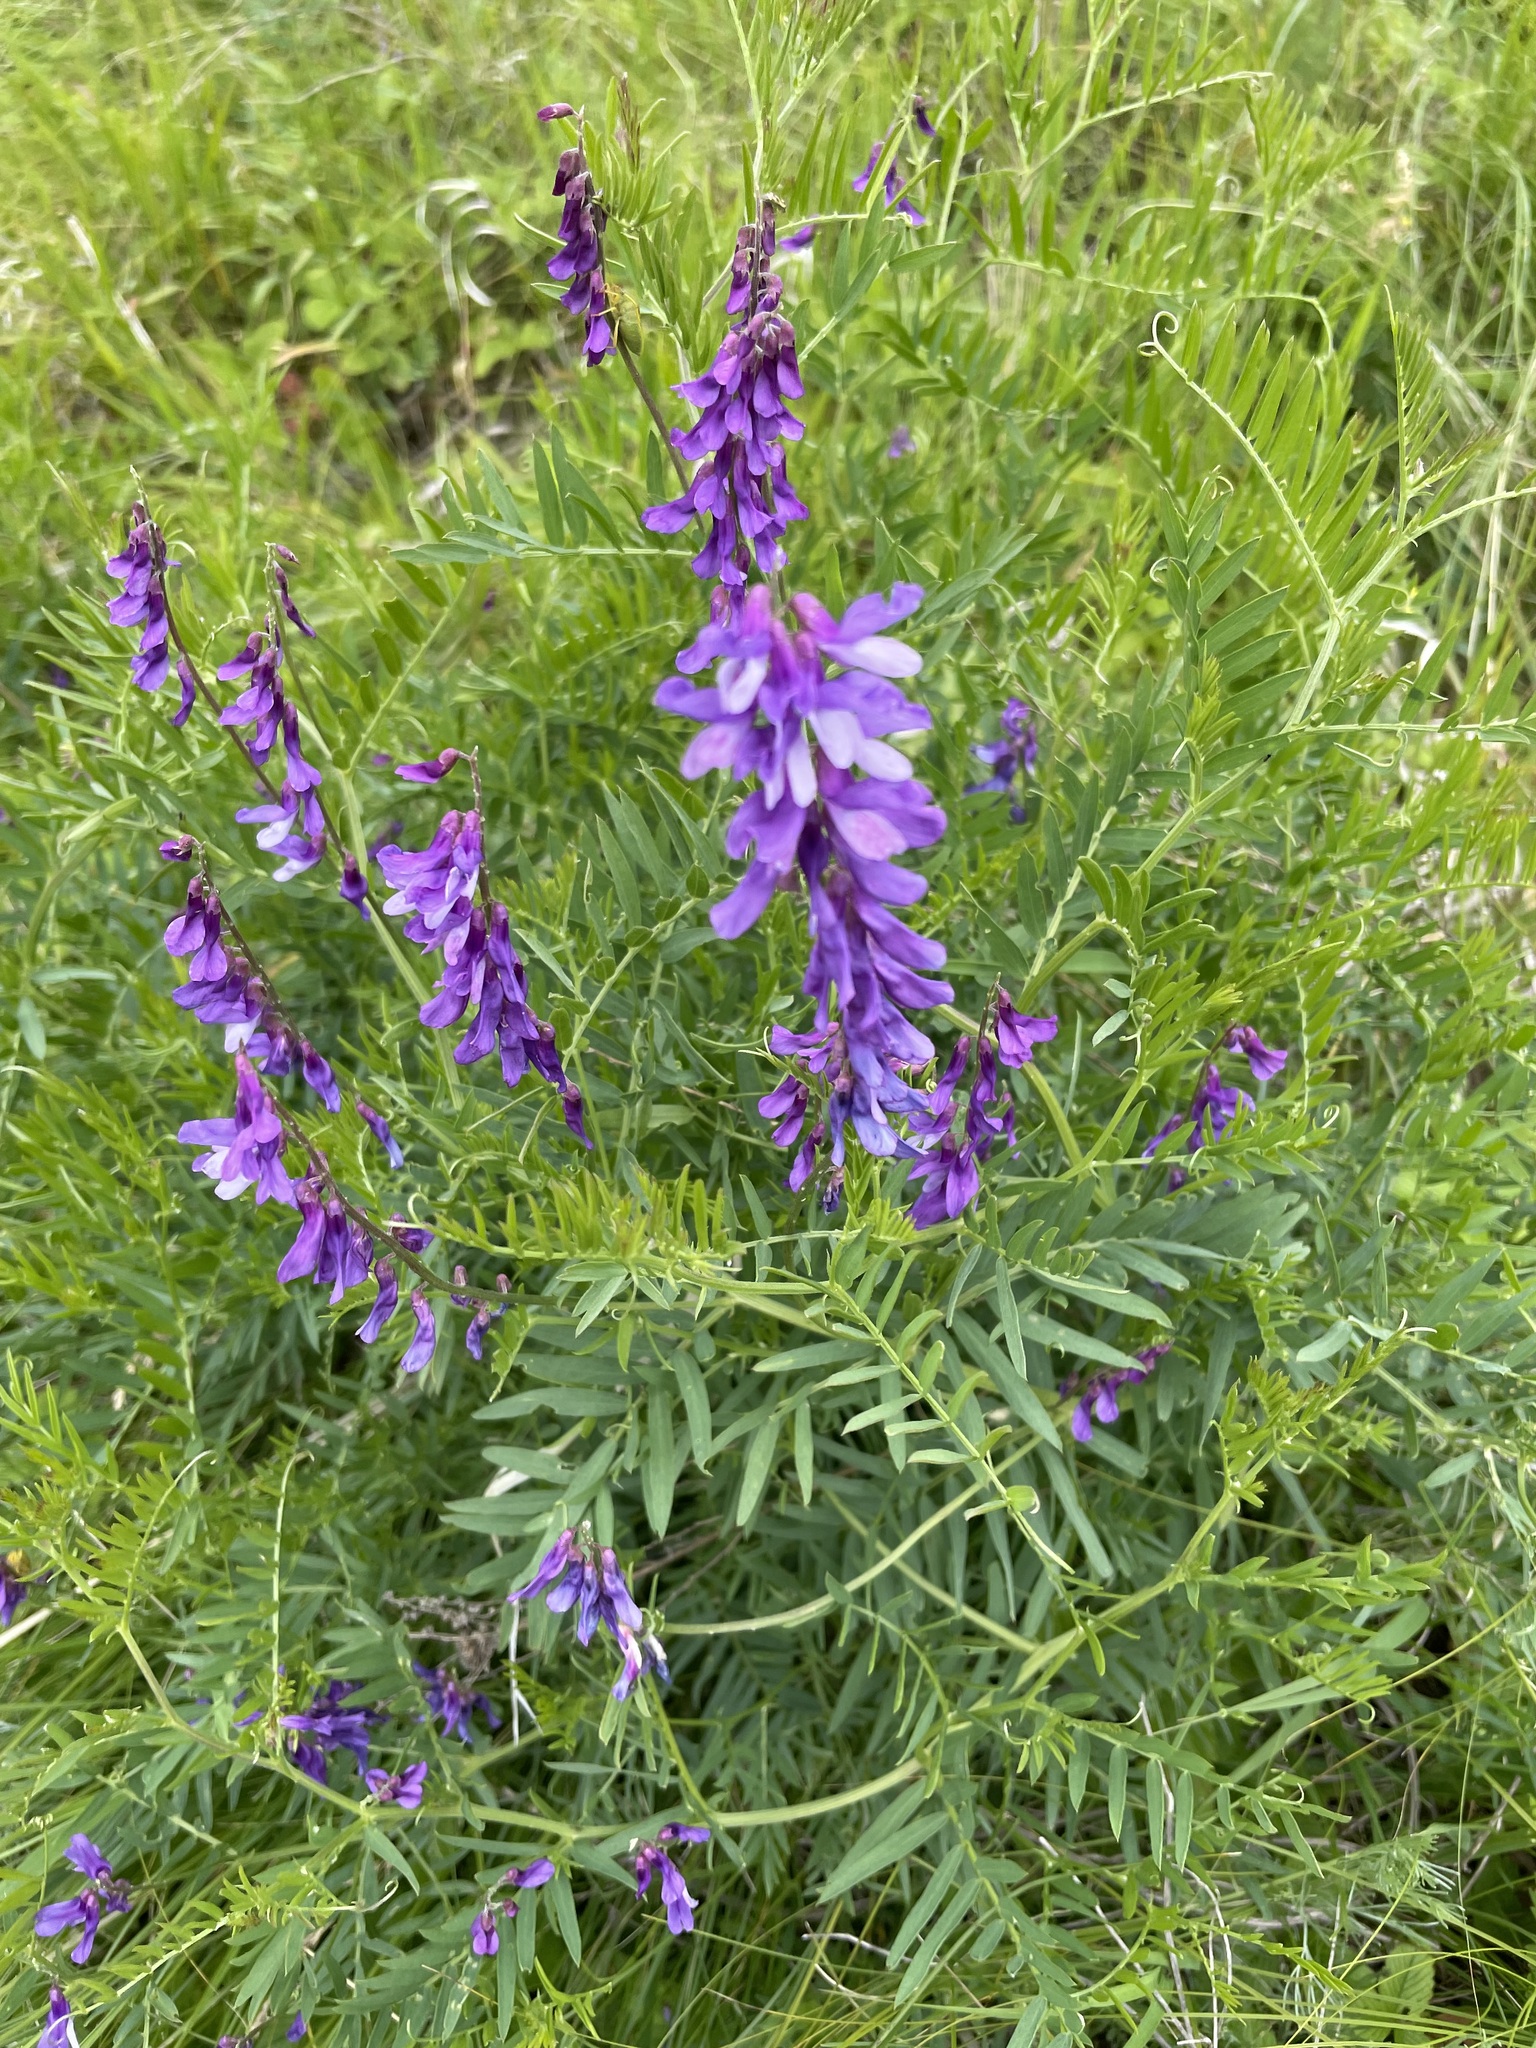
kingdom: Plantae
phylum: Tracheophyta
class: Magnoliopsida
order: Fabales
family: Fabaceae
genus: Vicia
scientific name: Vicia tenuifolia
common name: Fine-leaved vetch
